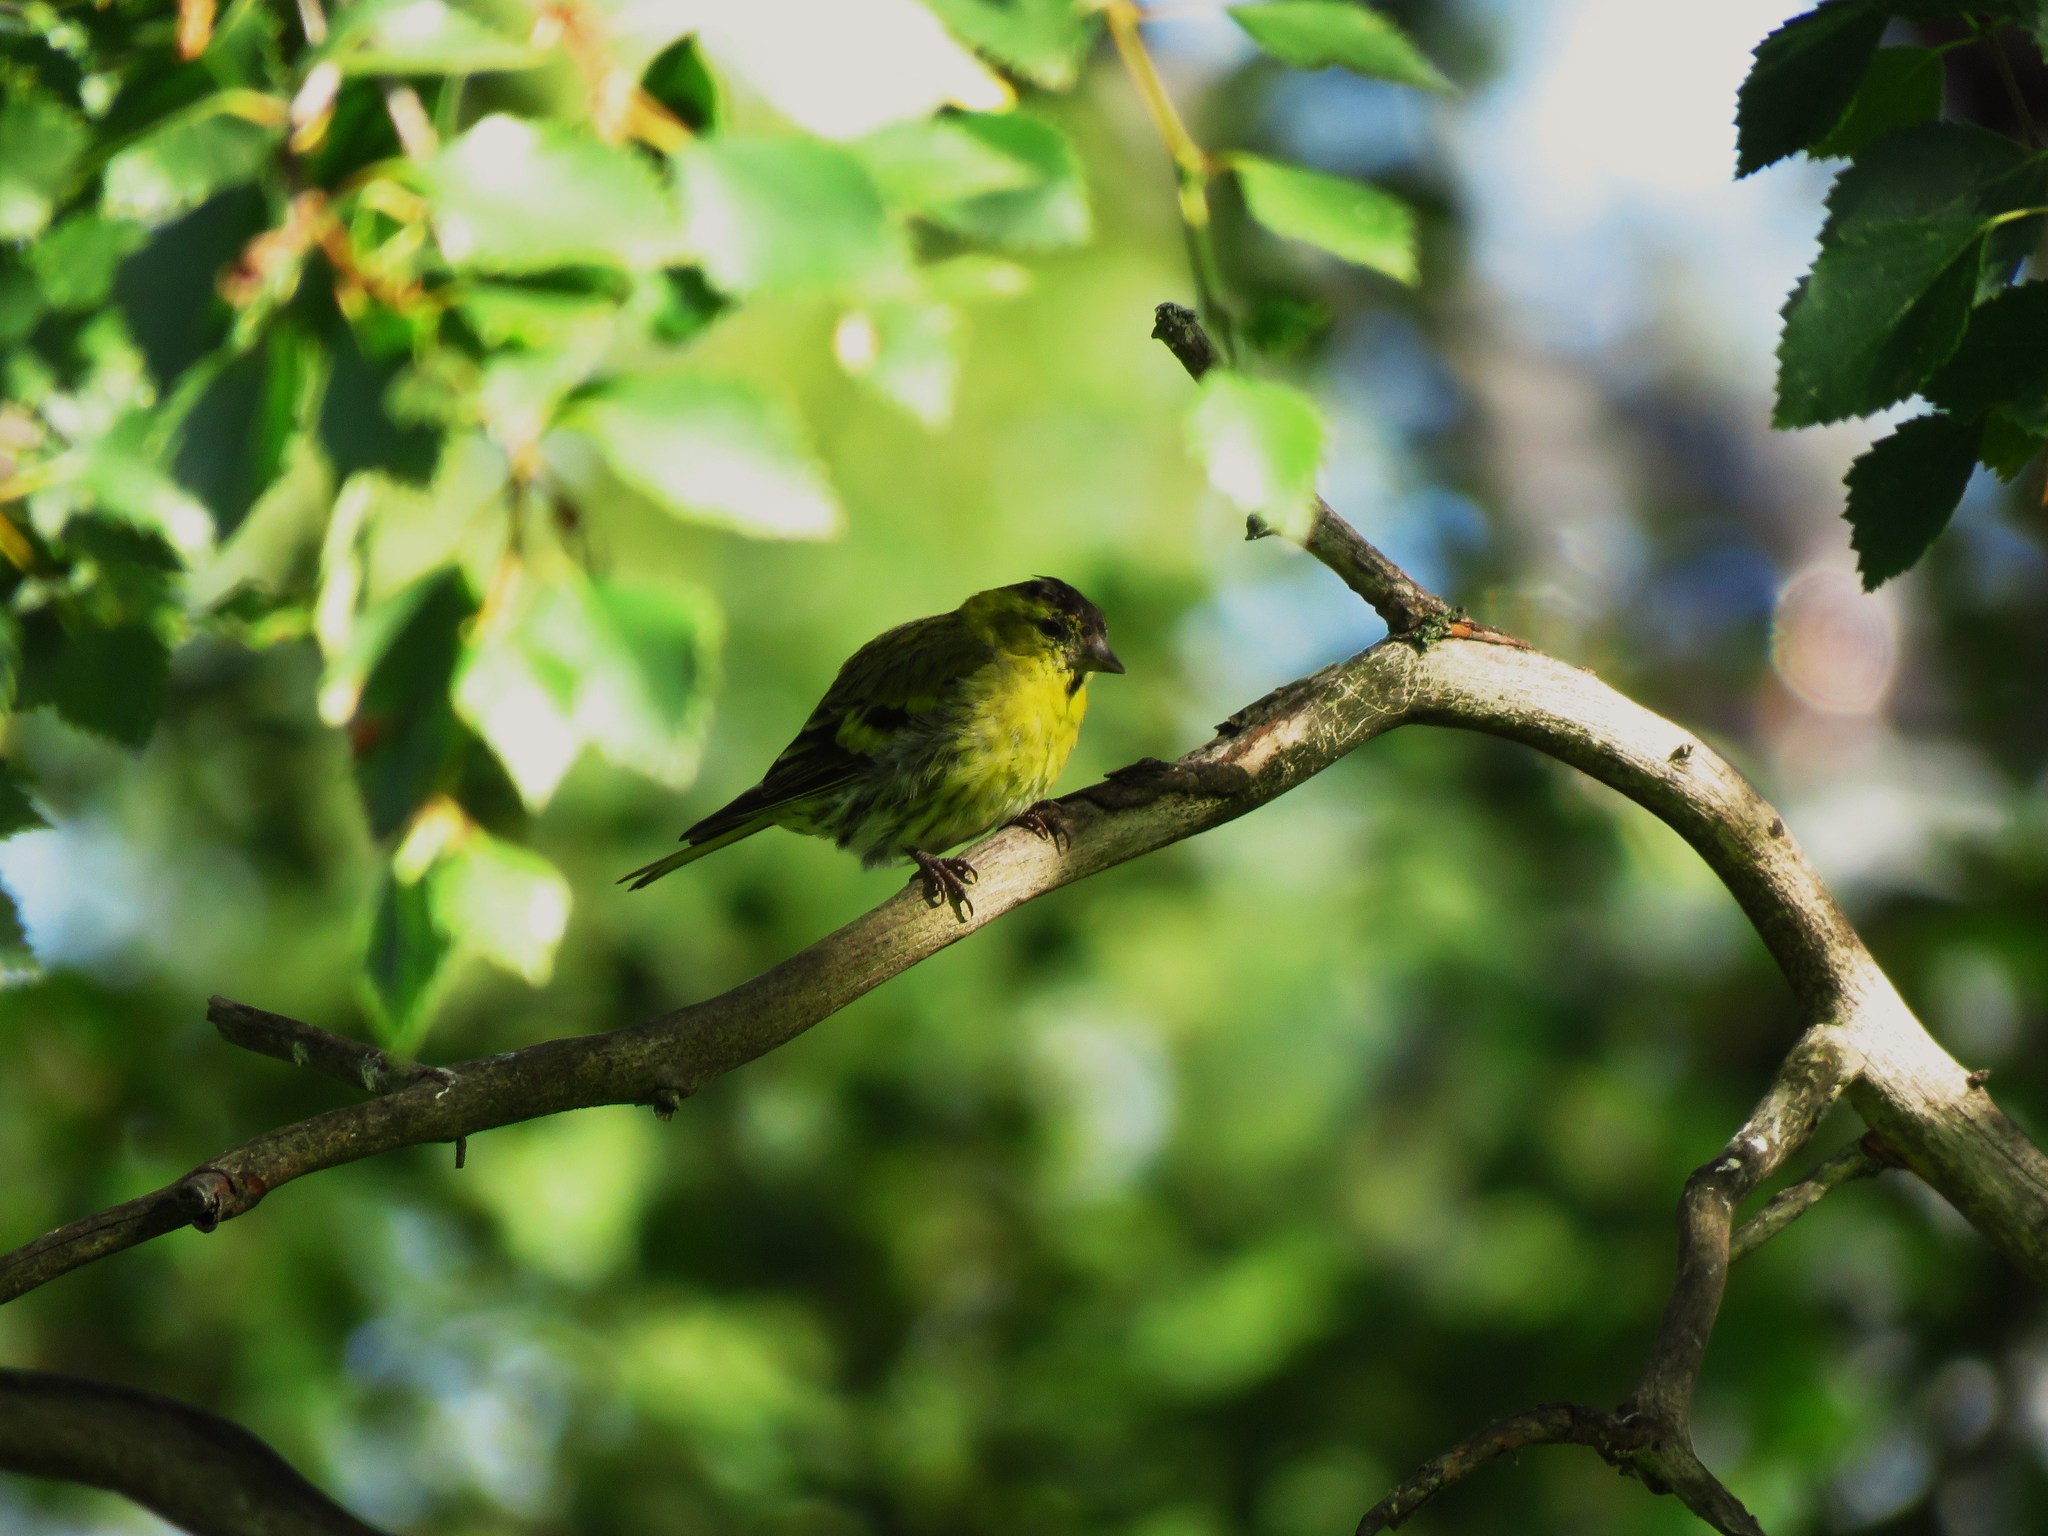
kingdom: Animalia
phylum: Chordata
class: Aves
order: Passeriformes
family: Fringillidae
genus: Spinus
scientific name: Spinus spinus
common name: Eurasian siskin
